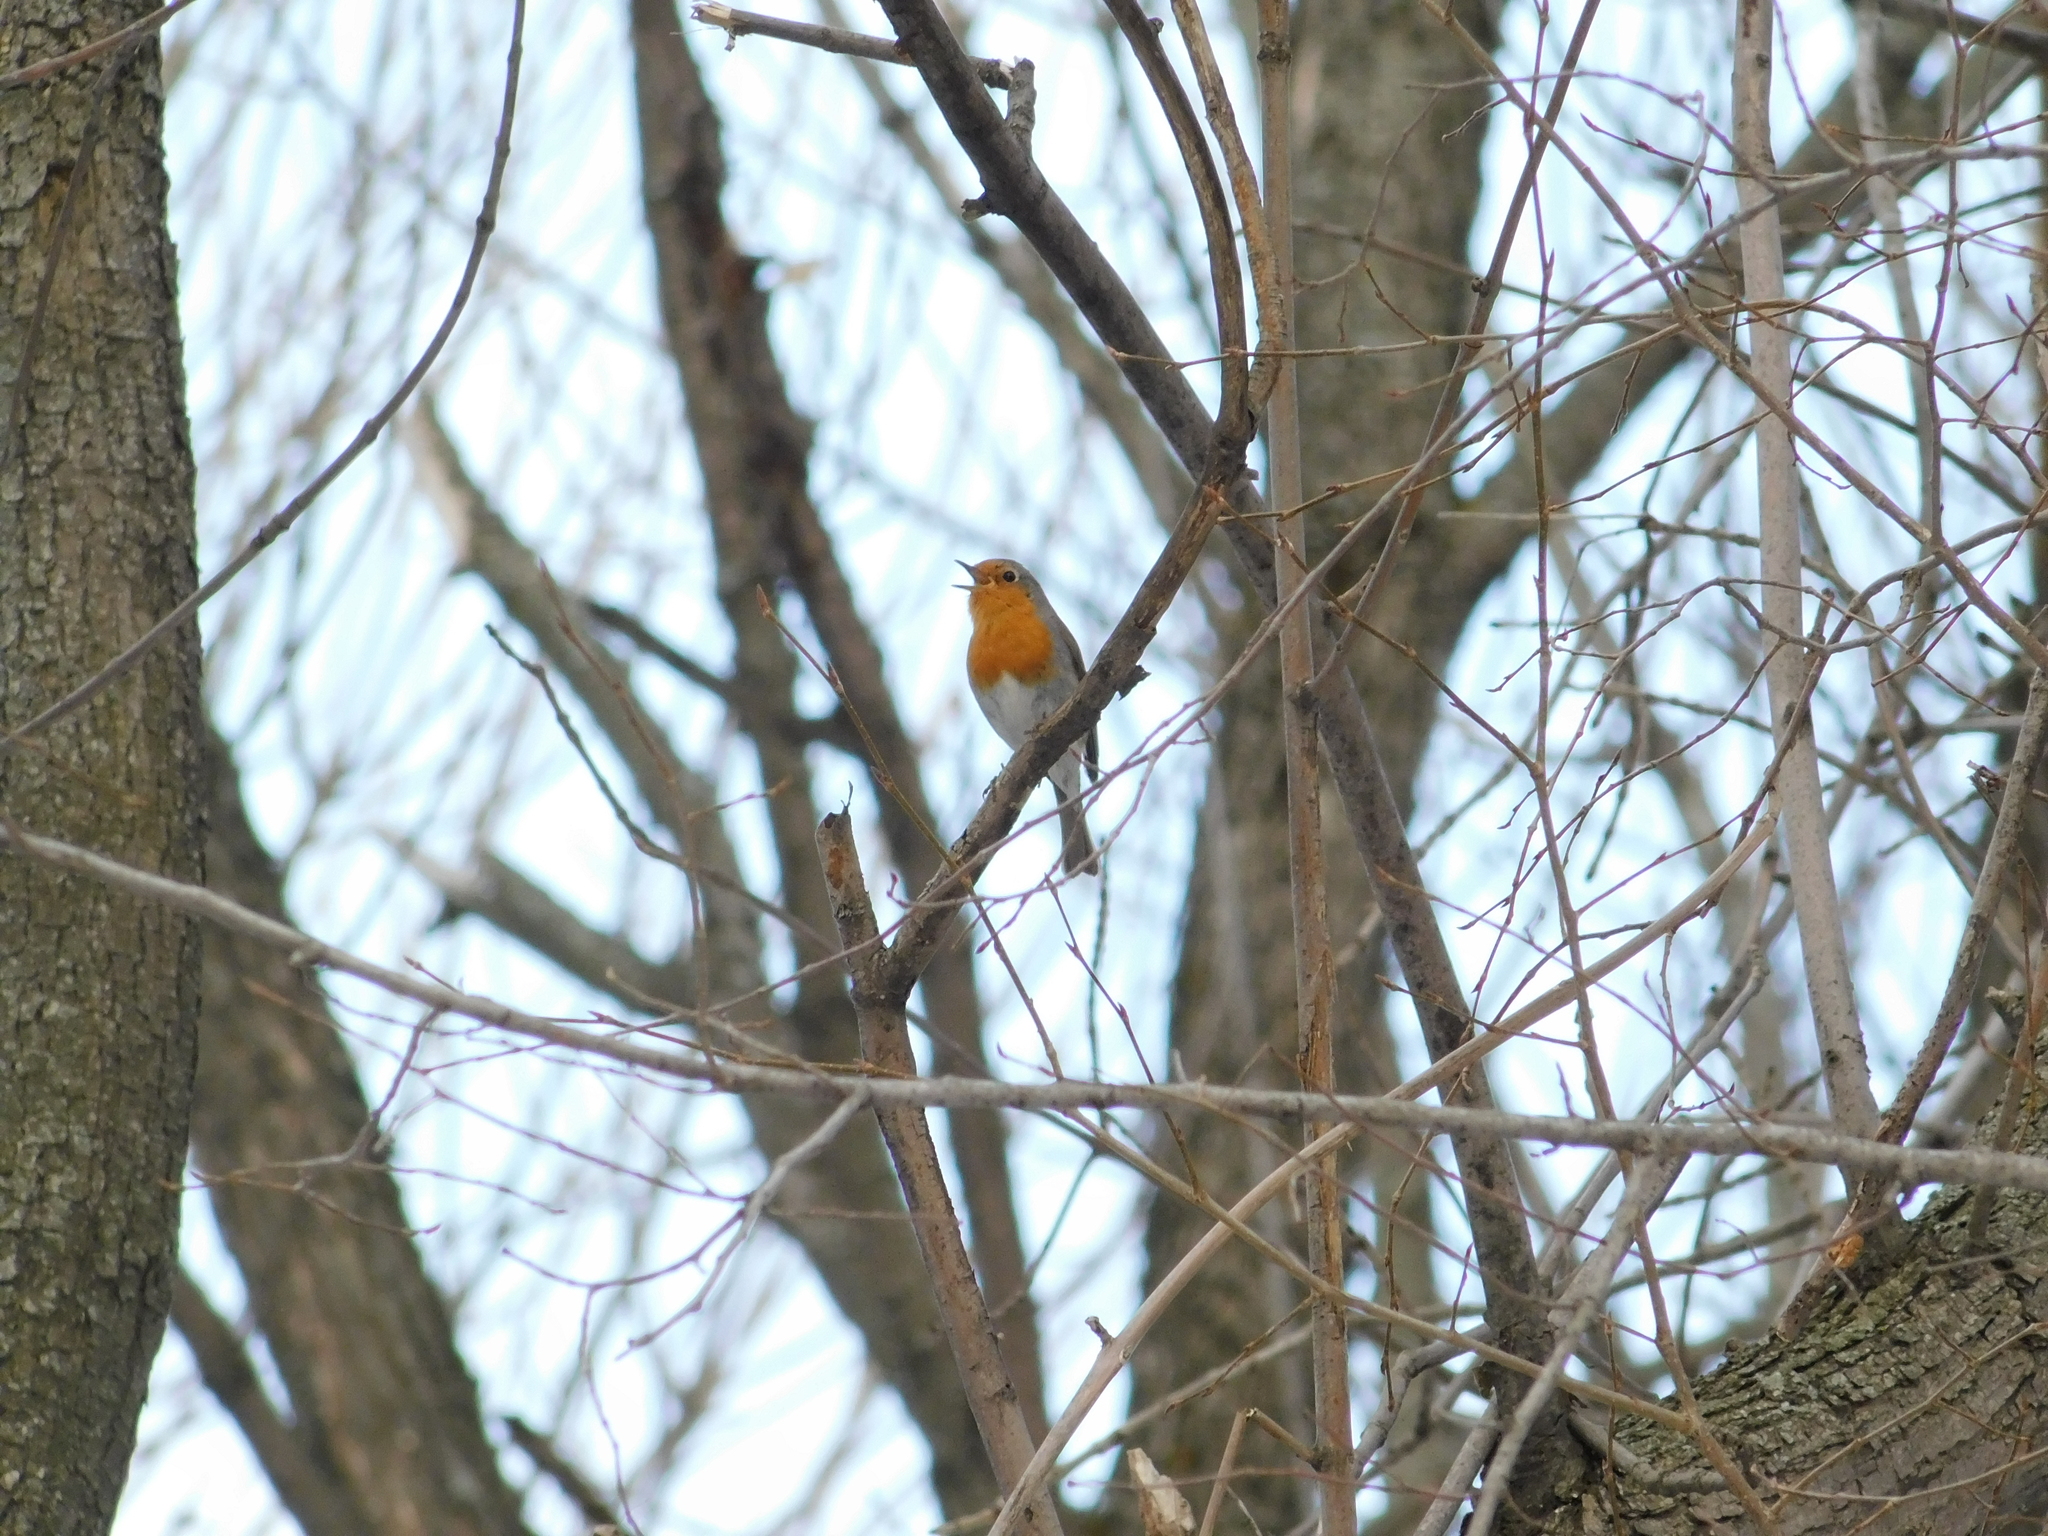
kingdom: Animalia
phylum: Chordata
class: Aves
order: Passeriformes
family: Muscicapidae
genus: Erithacus
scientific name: Erithacus rubecula
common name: European robin
